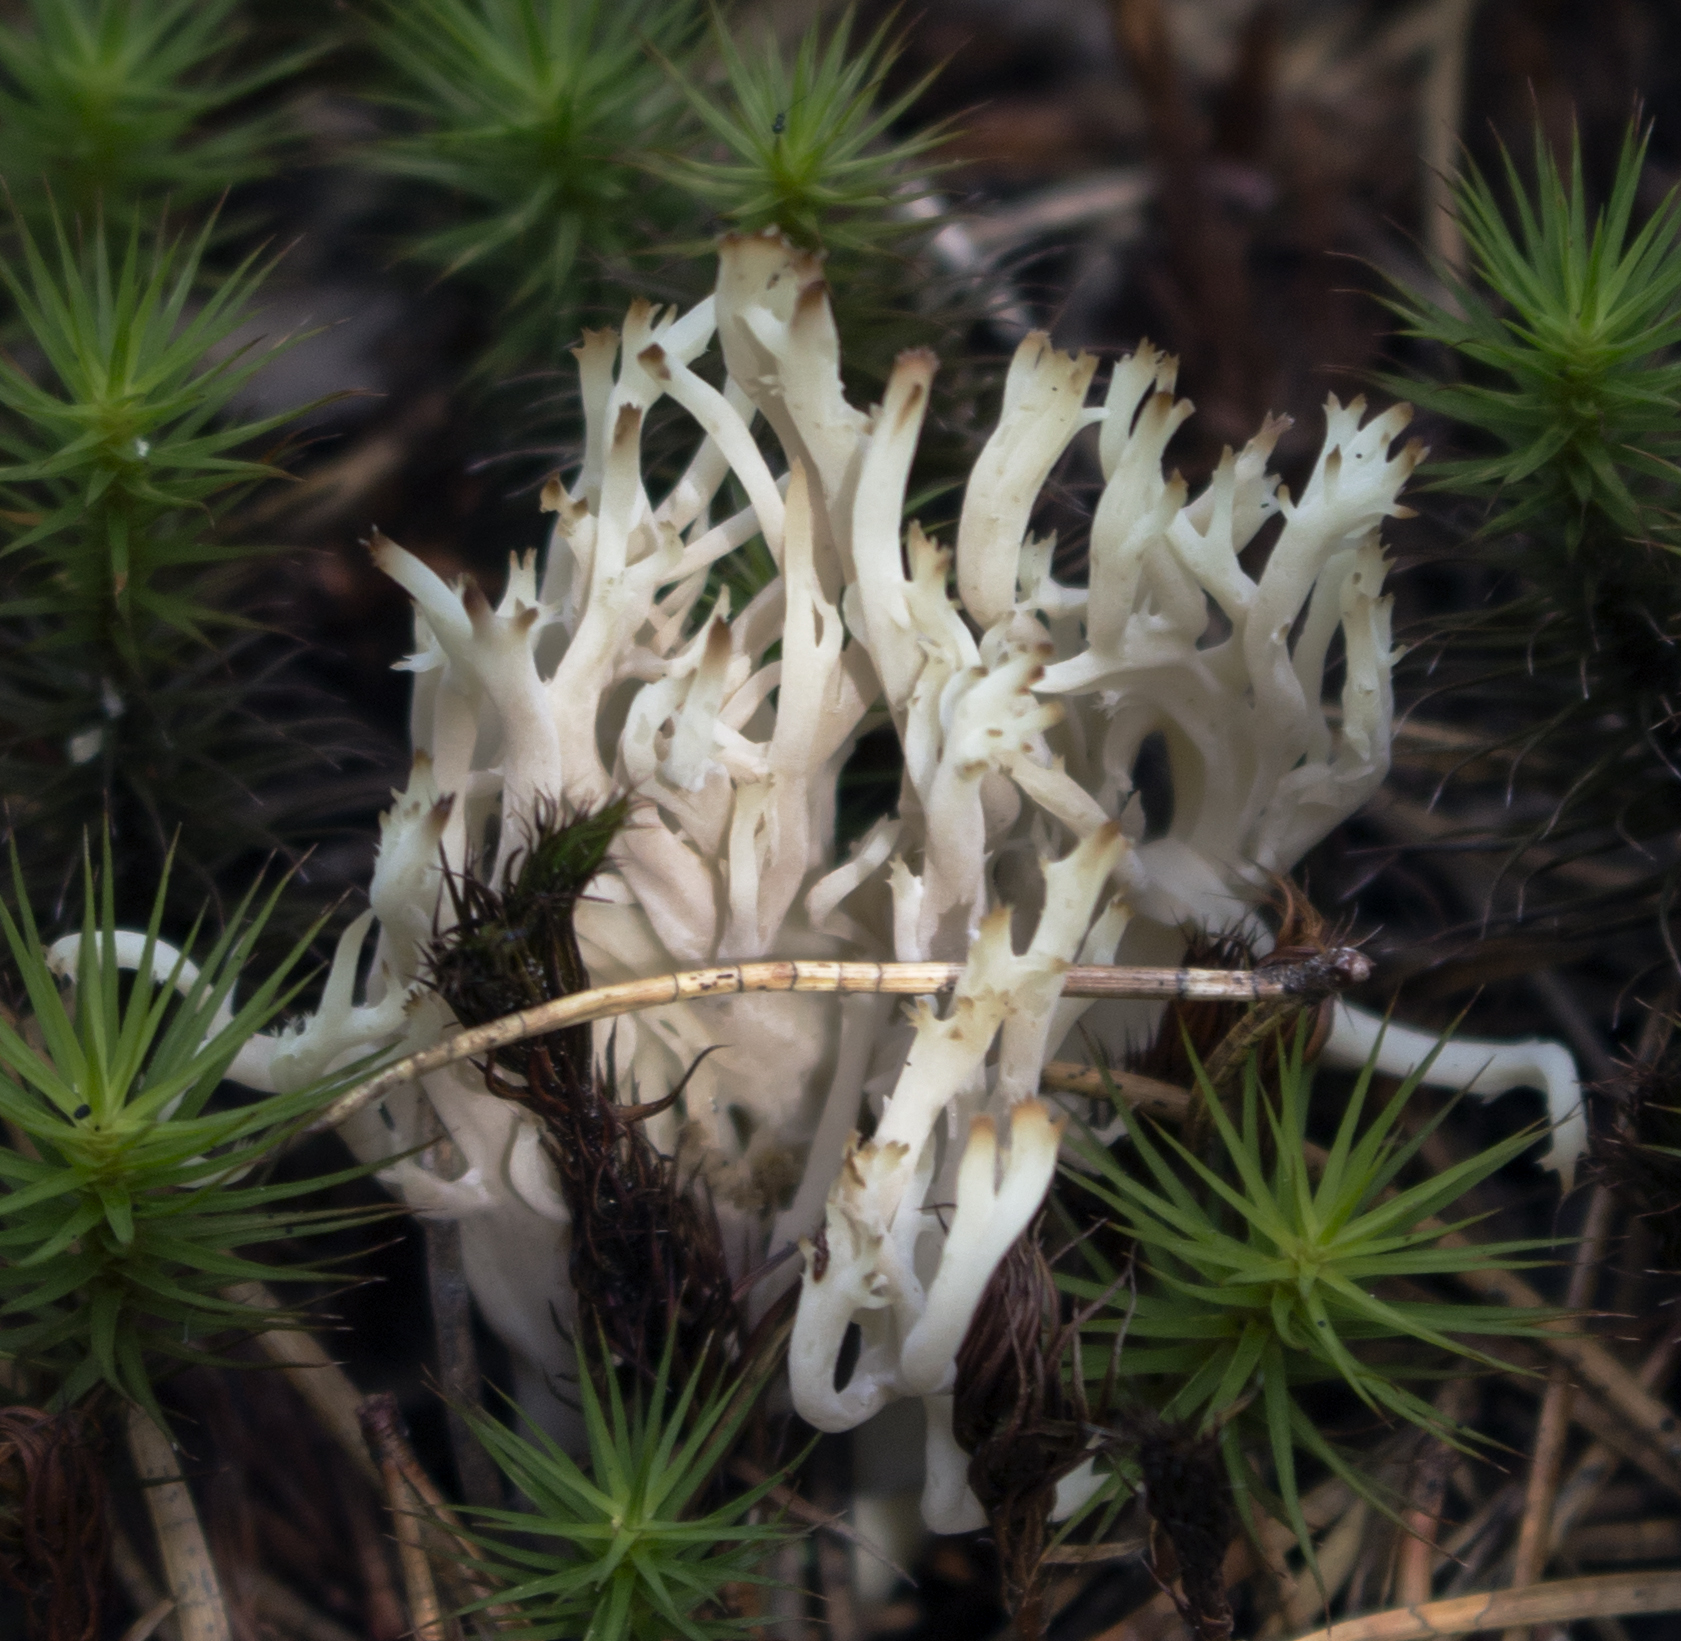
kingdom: Fungi
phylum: Basidiomycota
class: Agaricomycetes
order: Cantharellales
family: Hydnaceae
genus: Clavulina
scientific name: Clavulina coralloides
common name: Crested coral
